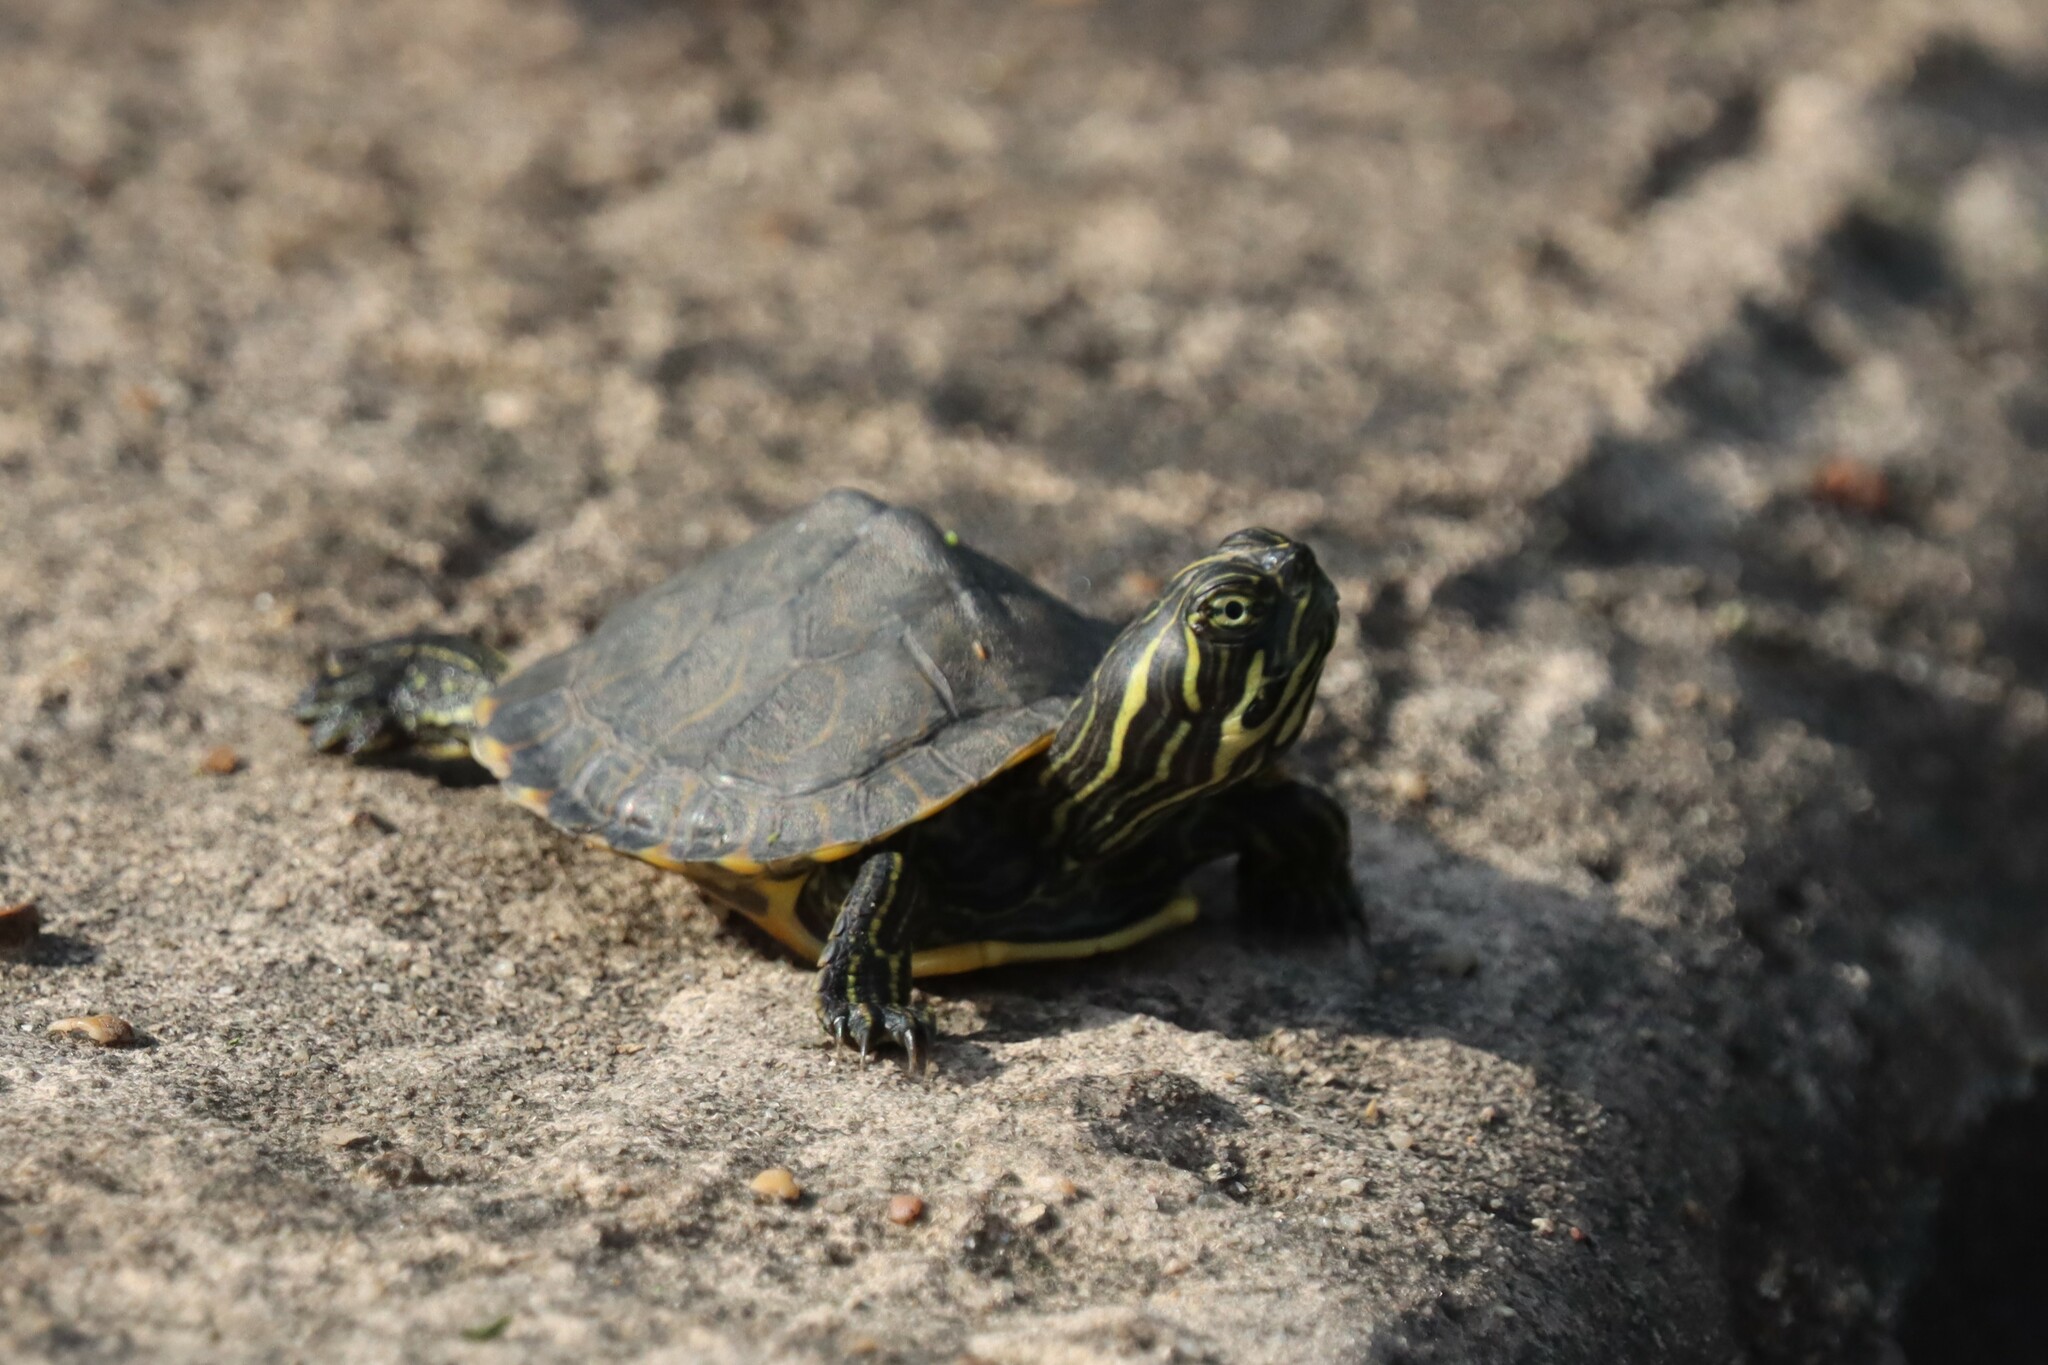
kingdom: Animalia
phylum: Chordata
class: Testudines
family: Emydidae
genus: Pseudemys
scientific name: Pseudemys concinna
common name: Eastern river cooter
